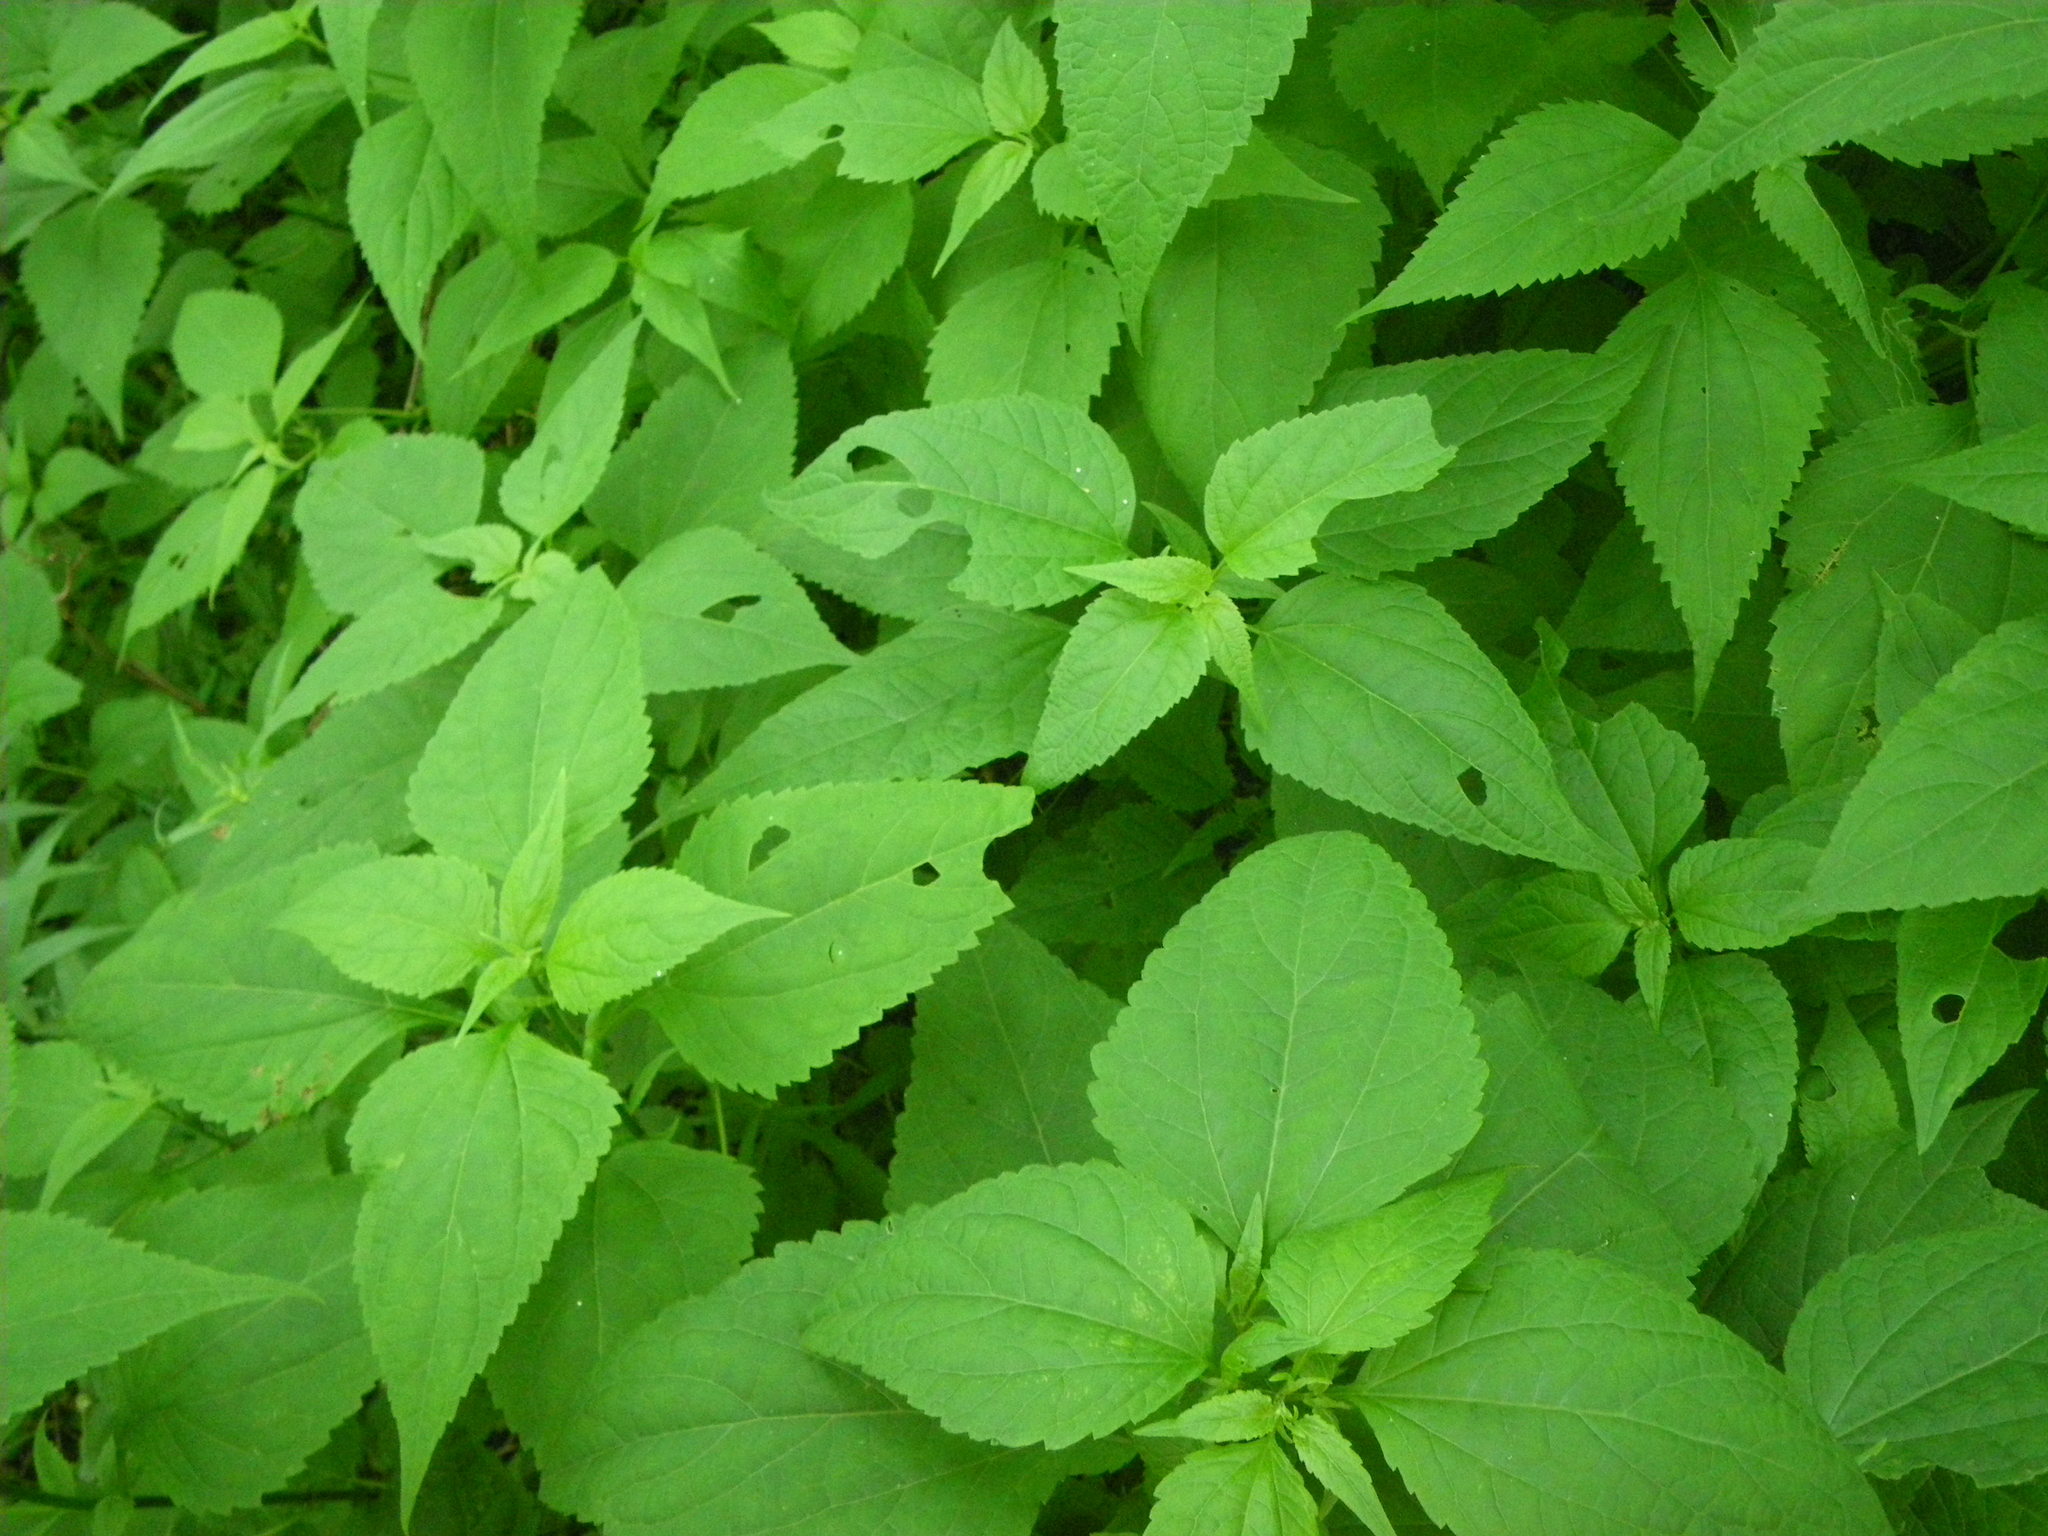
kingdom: Plantae
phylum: Tracheophyta
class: Magnoliopsida
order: Asterales
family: Asteraceae
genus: Ageratina
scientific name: Ageratina altissima
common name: White snakeroot
